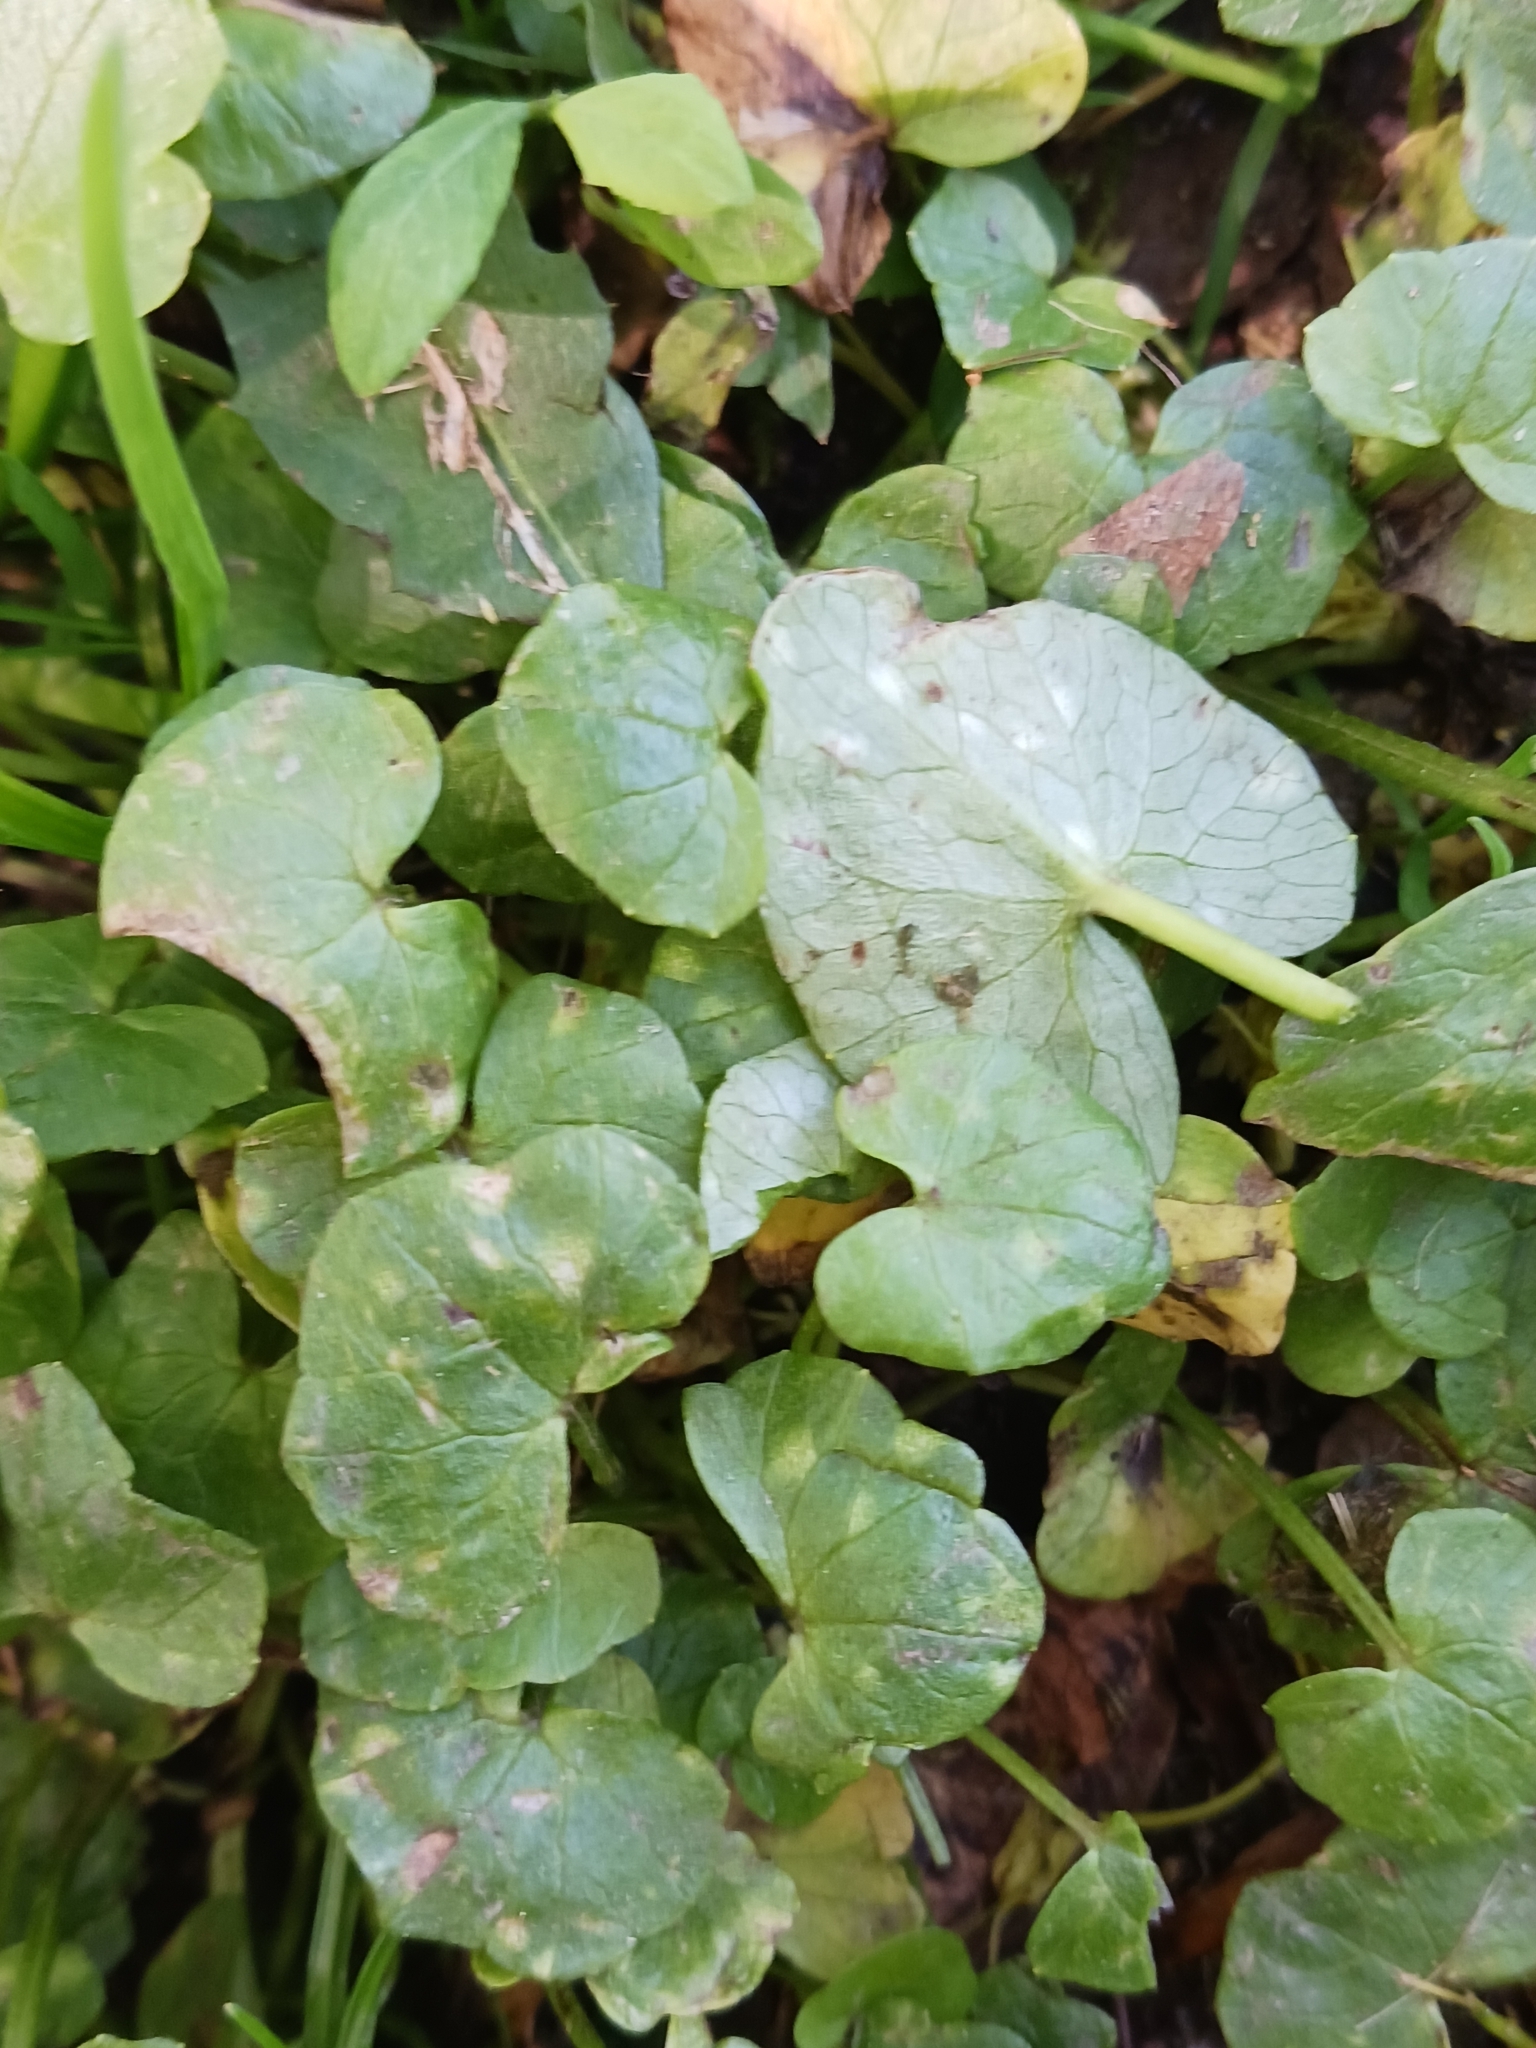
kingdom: Fungi
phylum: Basidiomycota
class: Exobasidiomycetes
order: Entylomatales
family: Entylomataceae
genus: Entyloma
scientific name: Entyloma ficariae
